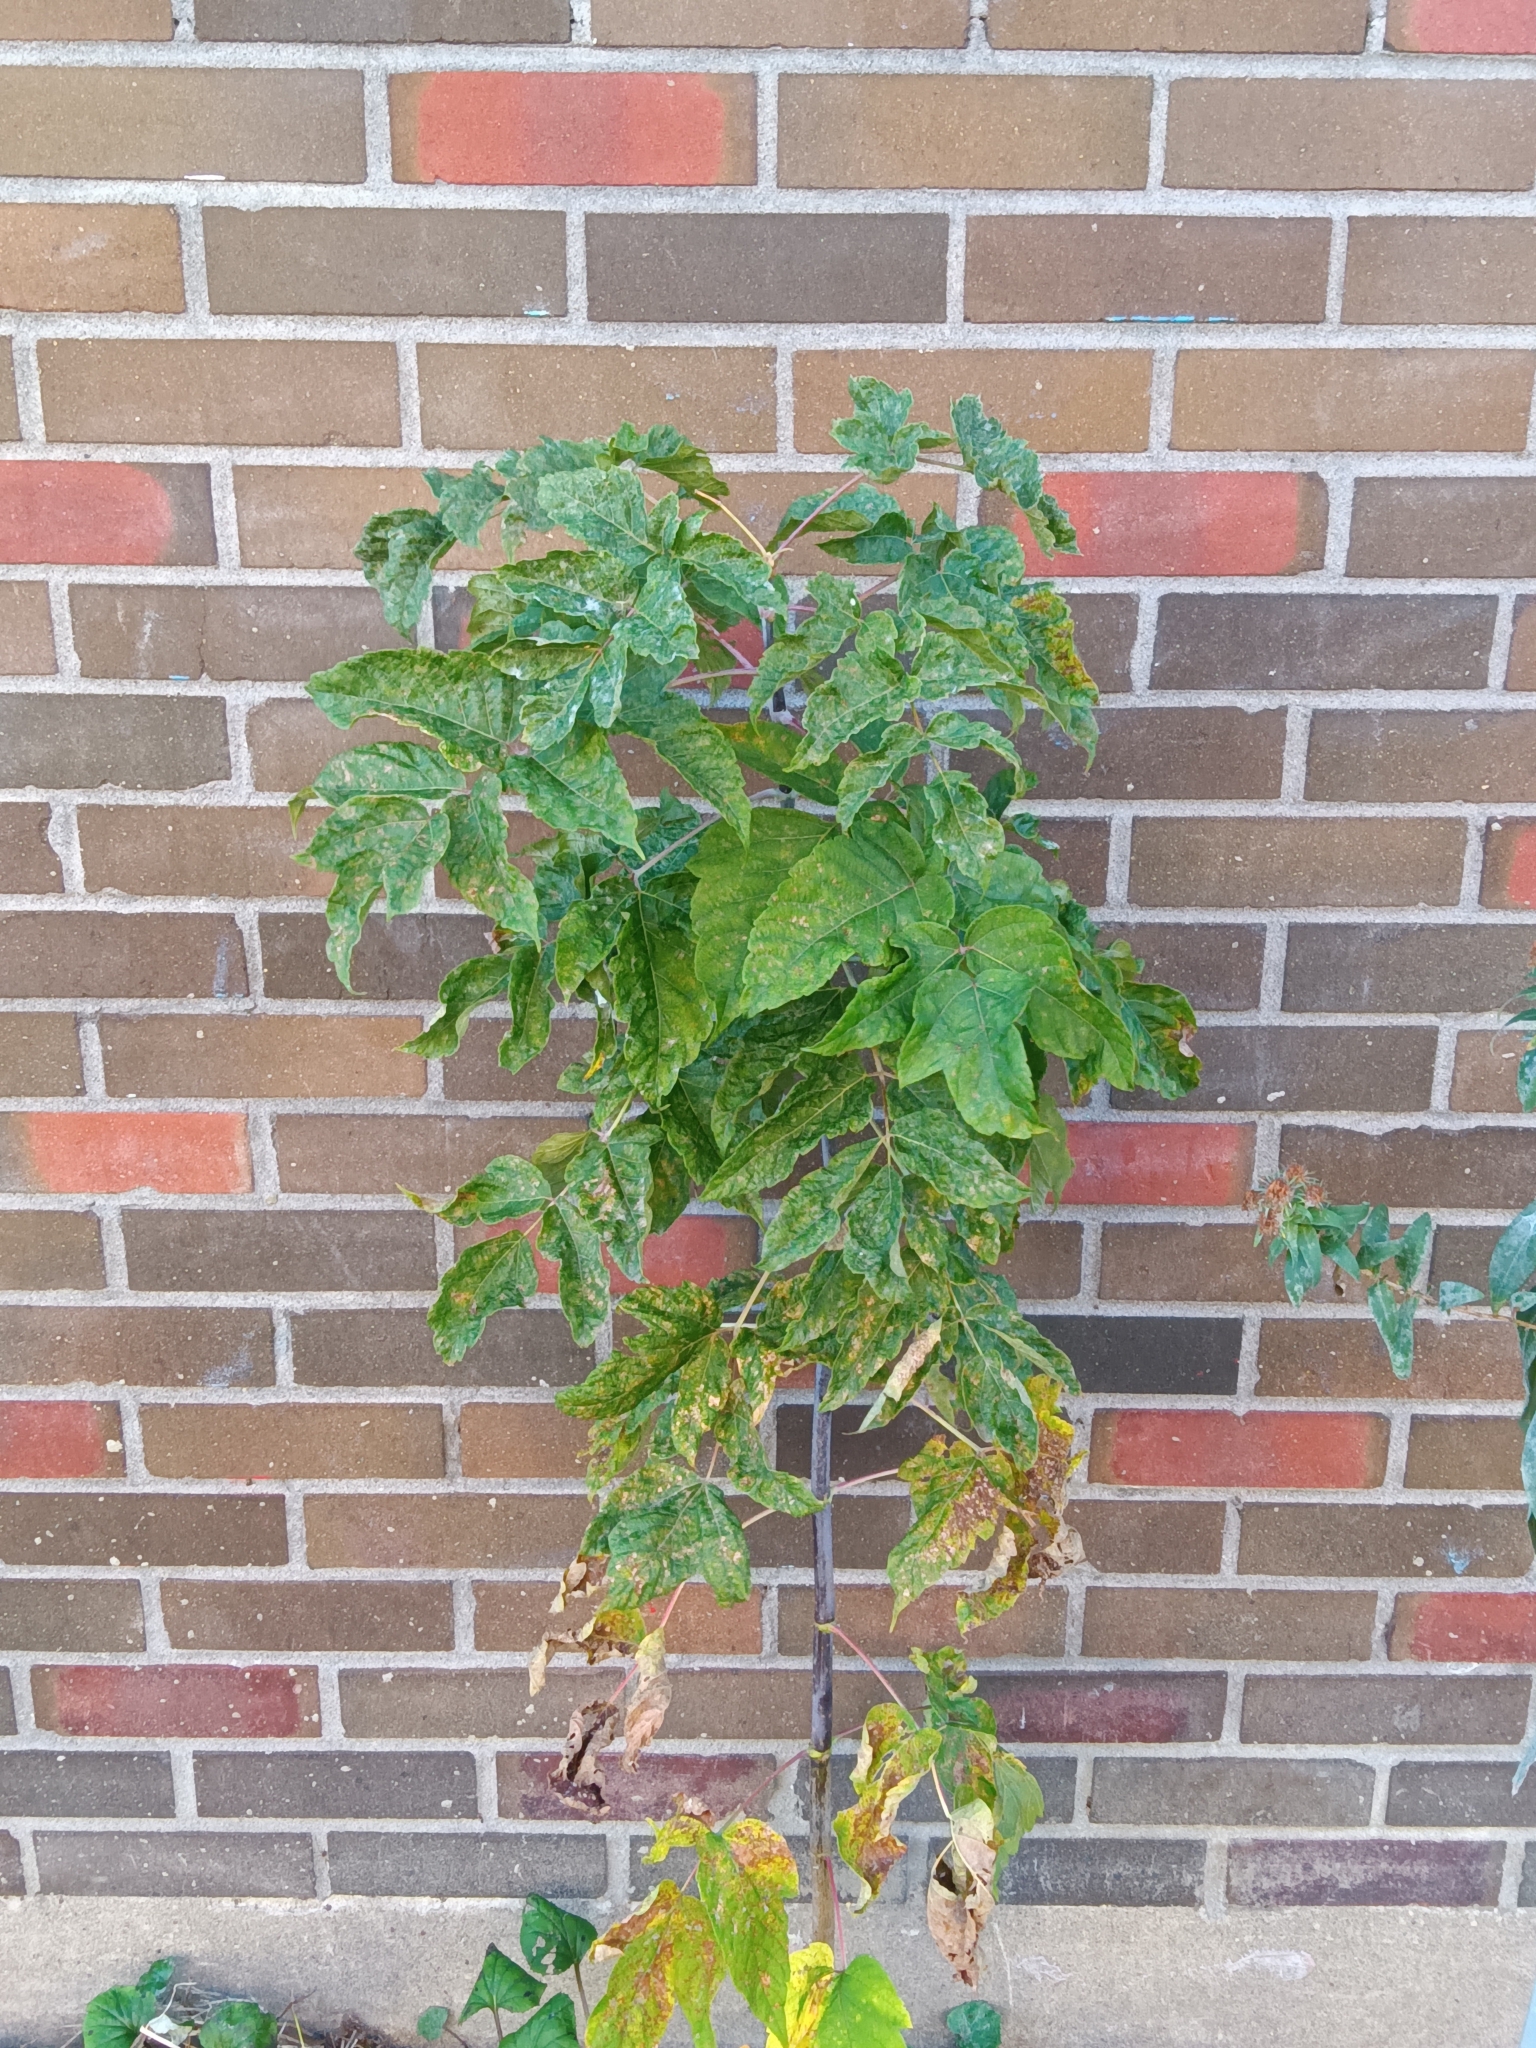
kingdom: Plantae
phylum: Tracheophyta
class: Magnoliopsida
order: Sapindales
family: Sapindaceae
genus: Acer
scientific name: Acer negundo
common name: Ashleaf maple
